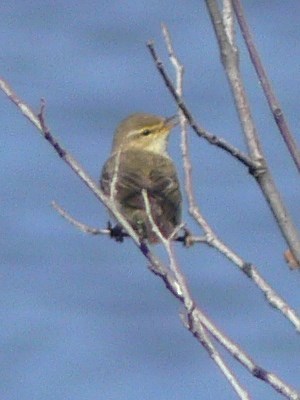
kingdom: Animalia
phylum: Chordata
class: Aves
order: Passeriformes
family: Phylloscopidae
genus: Phylloscopus
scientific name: Phylloscopus trochilus
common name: Willow warbler
